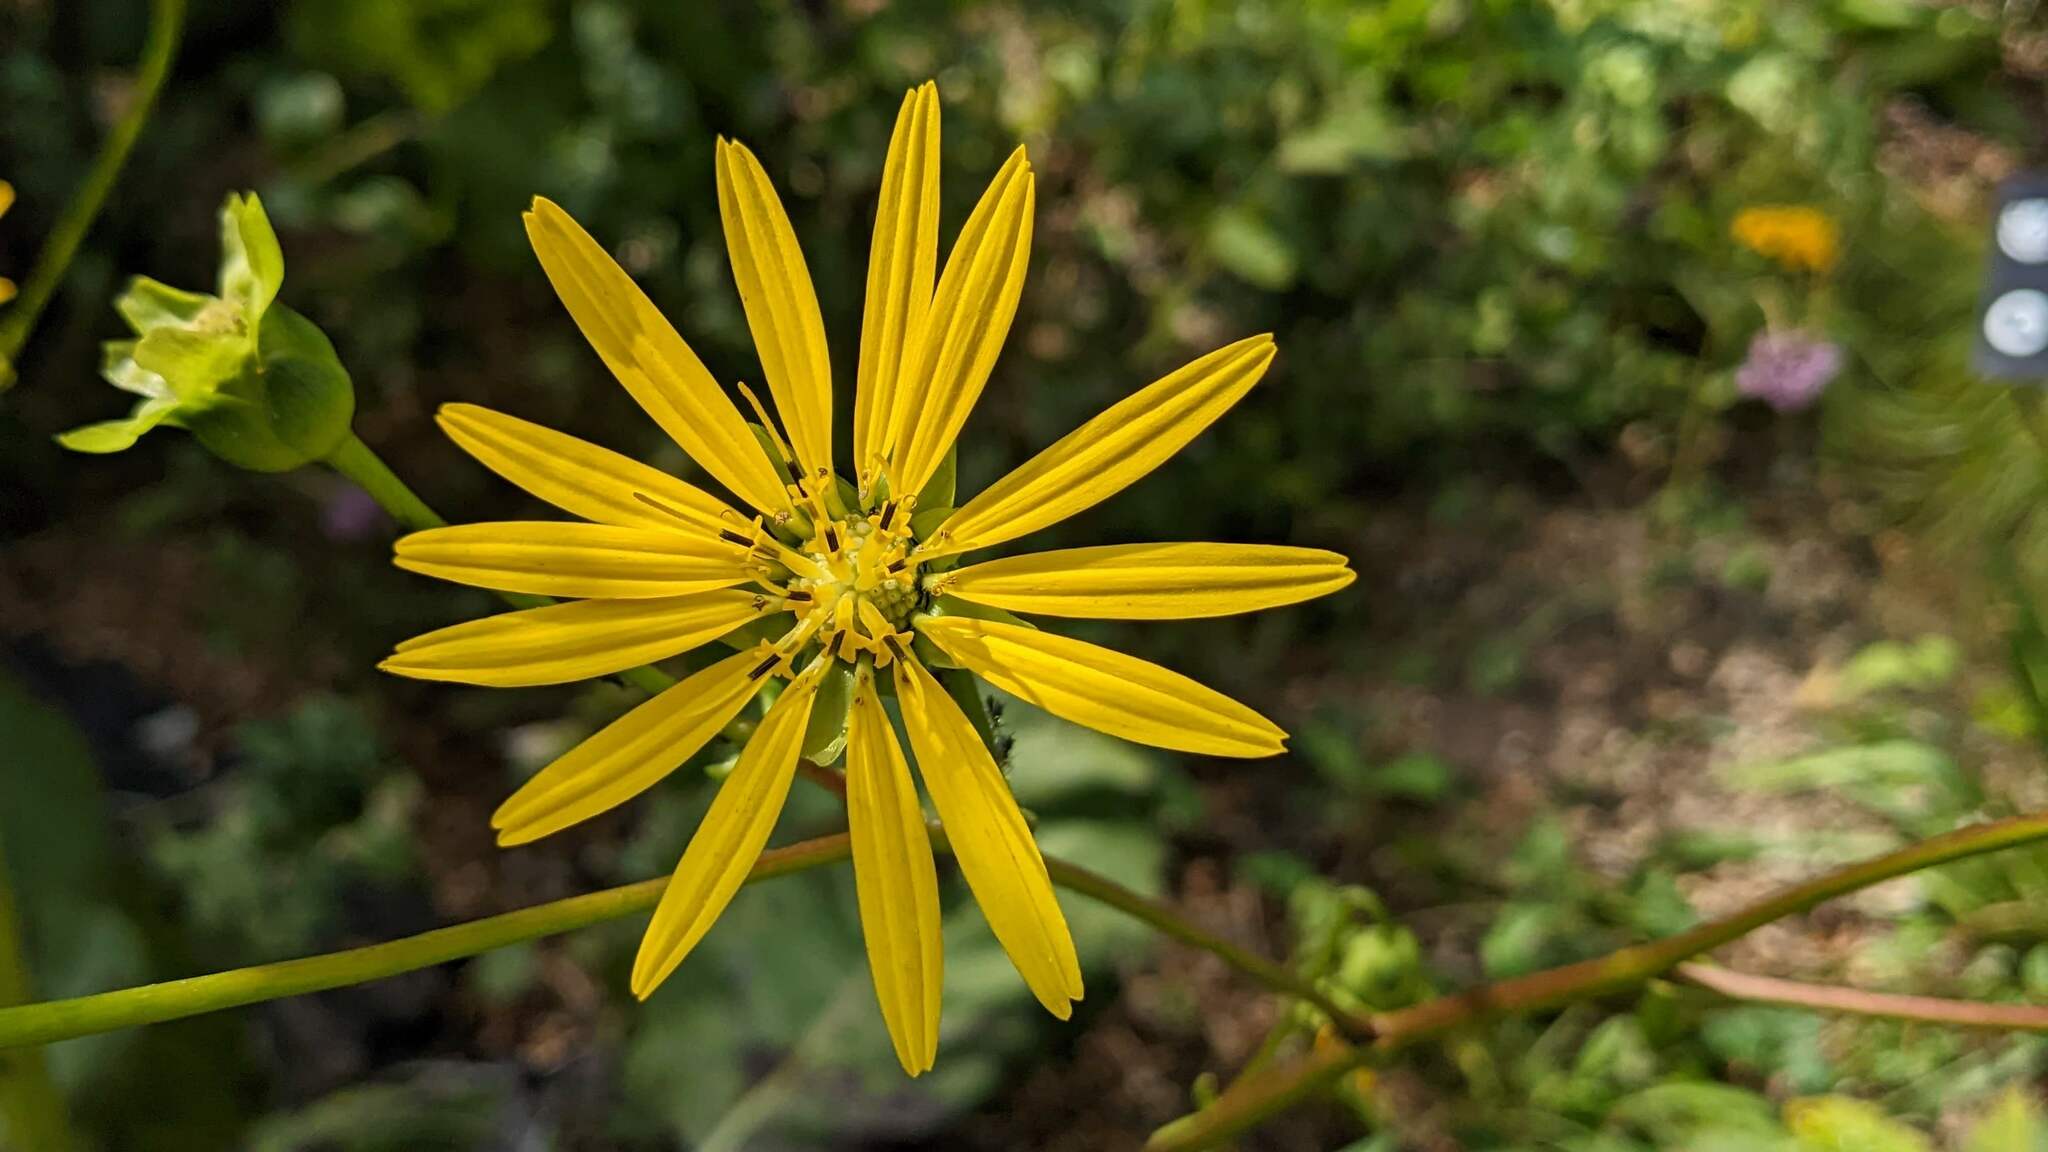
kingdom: Plantae
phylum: Tracheophyta
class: Magnoliopsida
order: Asterales
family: Asteraceae
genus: Silphium
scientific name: Silphium terebinthinaceum
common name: Basal-leaf rosinweed
